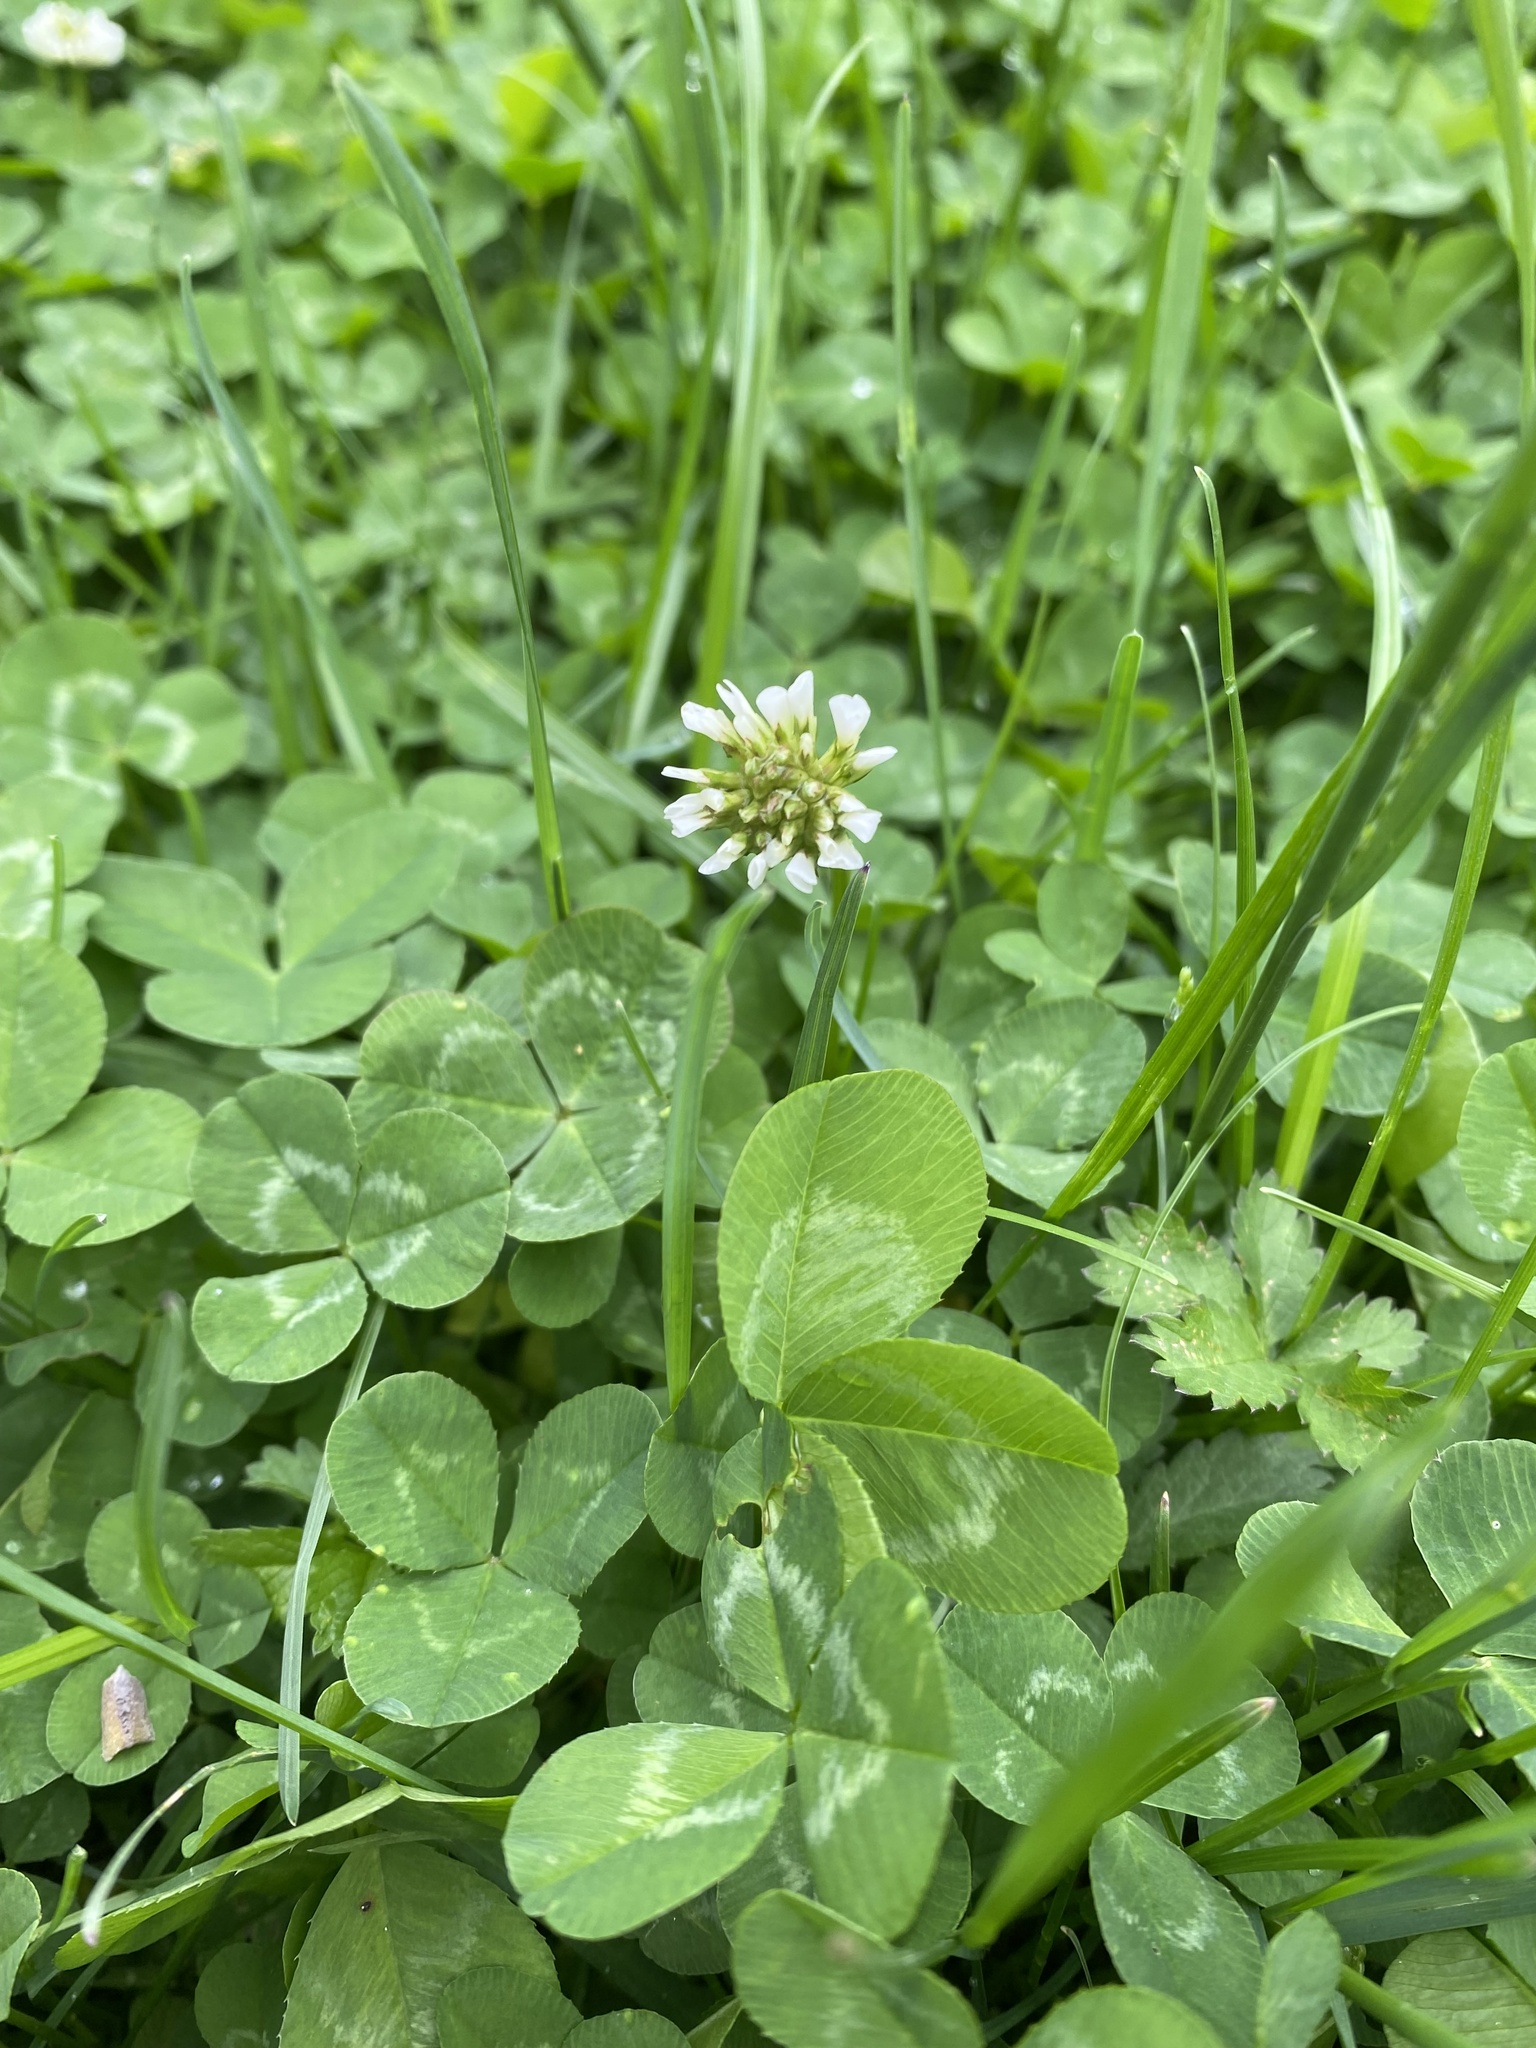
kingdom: Plantae
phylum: Tracheophyta
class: Magnoliopsida
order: Fabales
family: Fabaceae
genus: Trifolium
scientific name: Trifolium repens
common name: White clover
